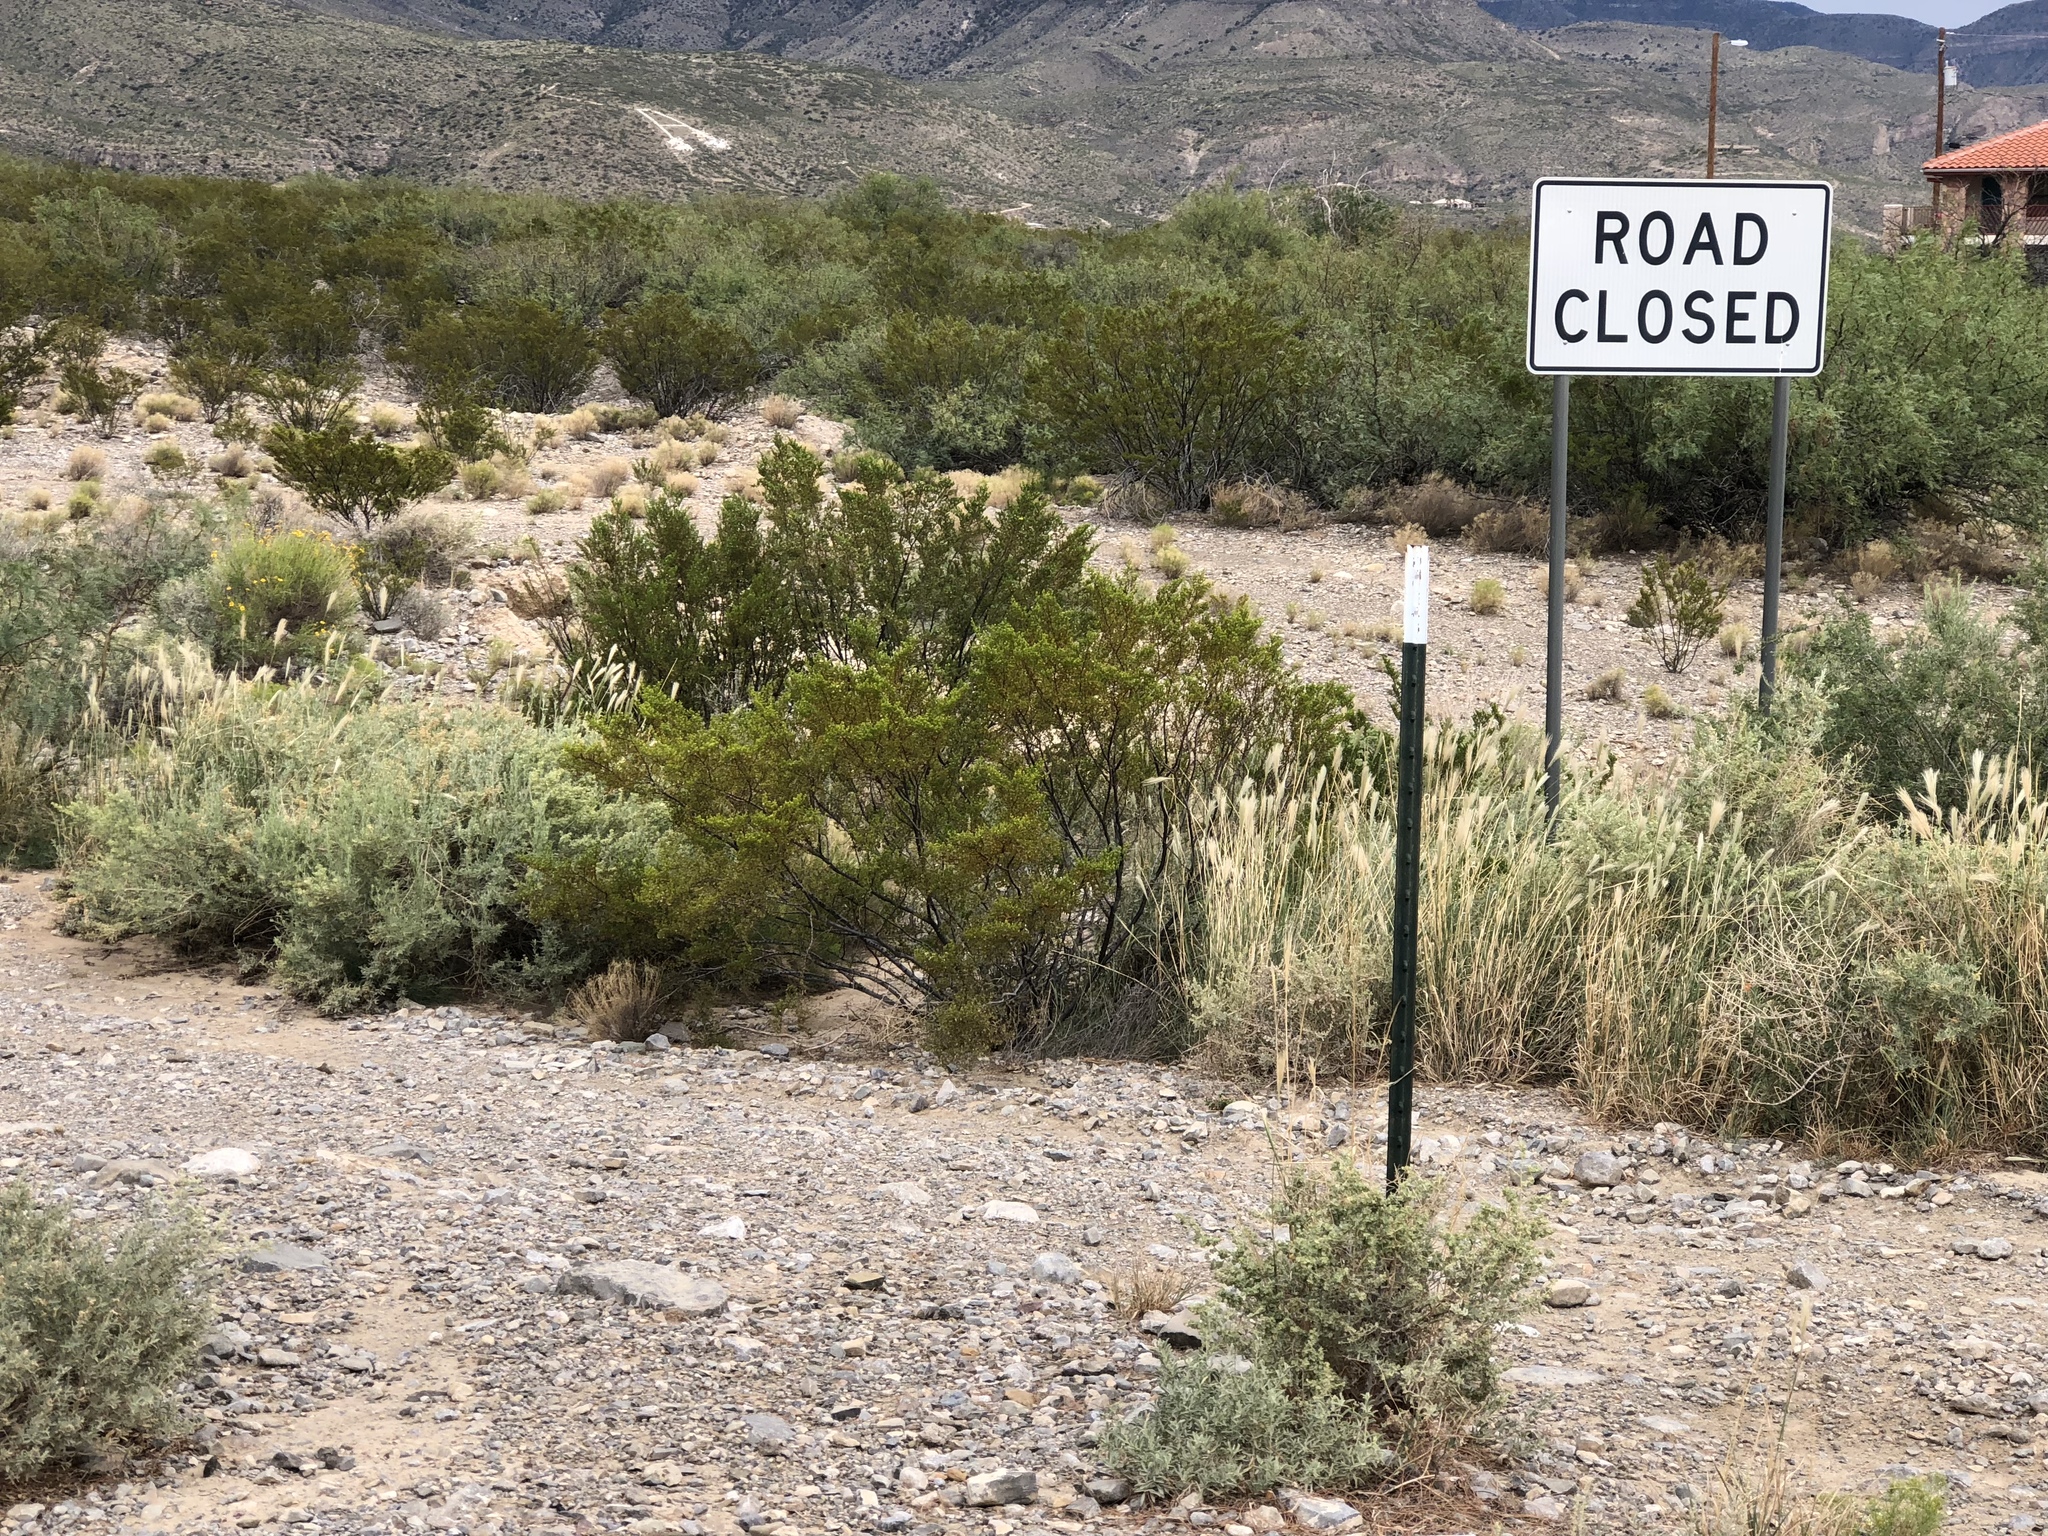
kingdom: Plantae
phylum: Tracheophyta
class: Magnoliopsida
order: Zygophyllales
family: Zygophyllaceae
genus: Larrea
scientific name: Larrea tridentata
